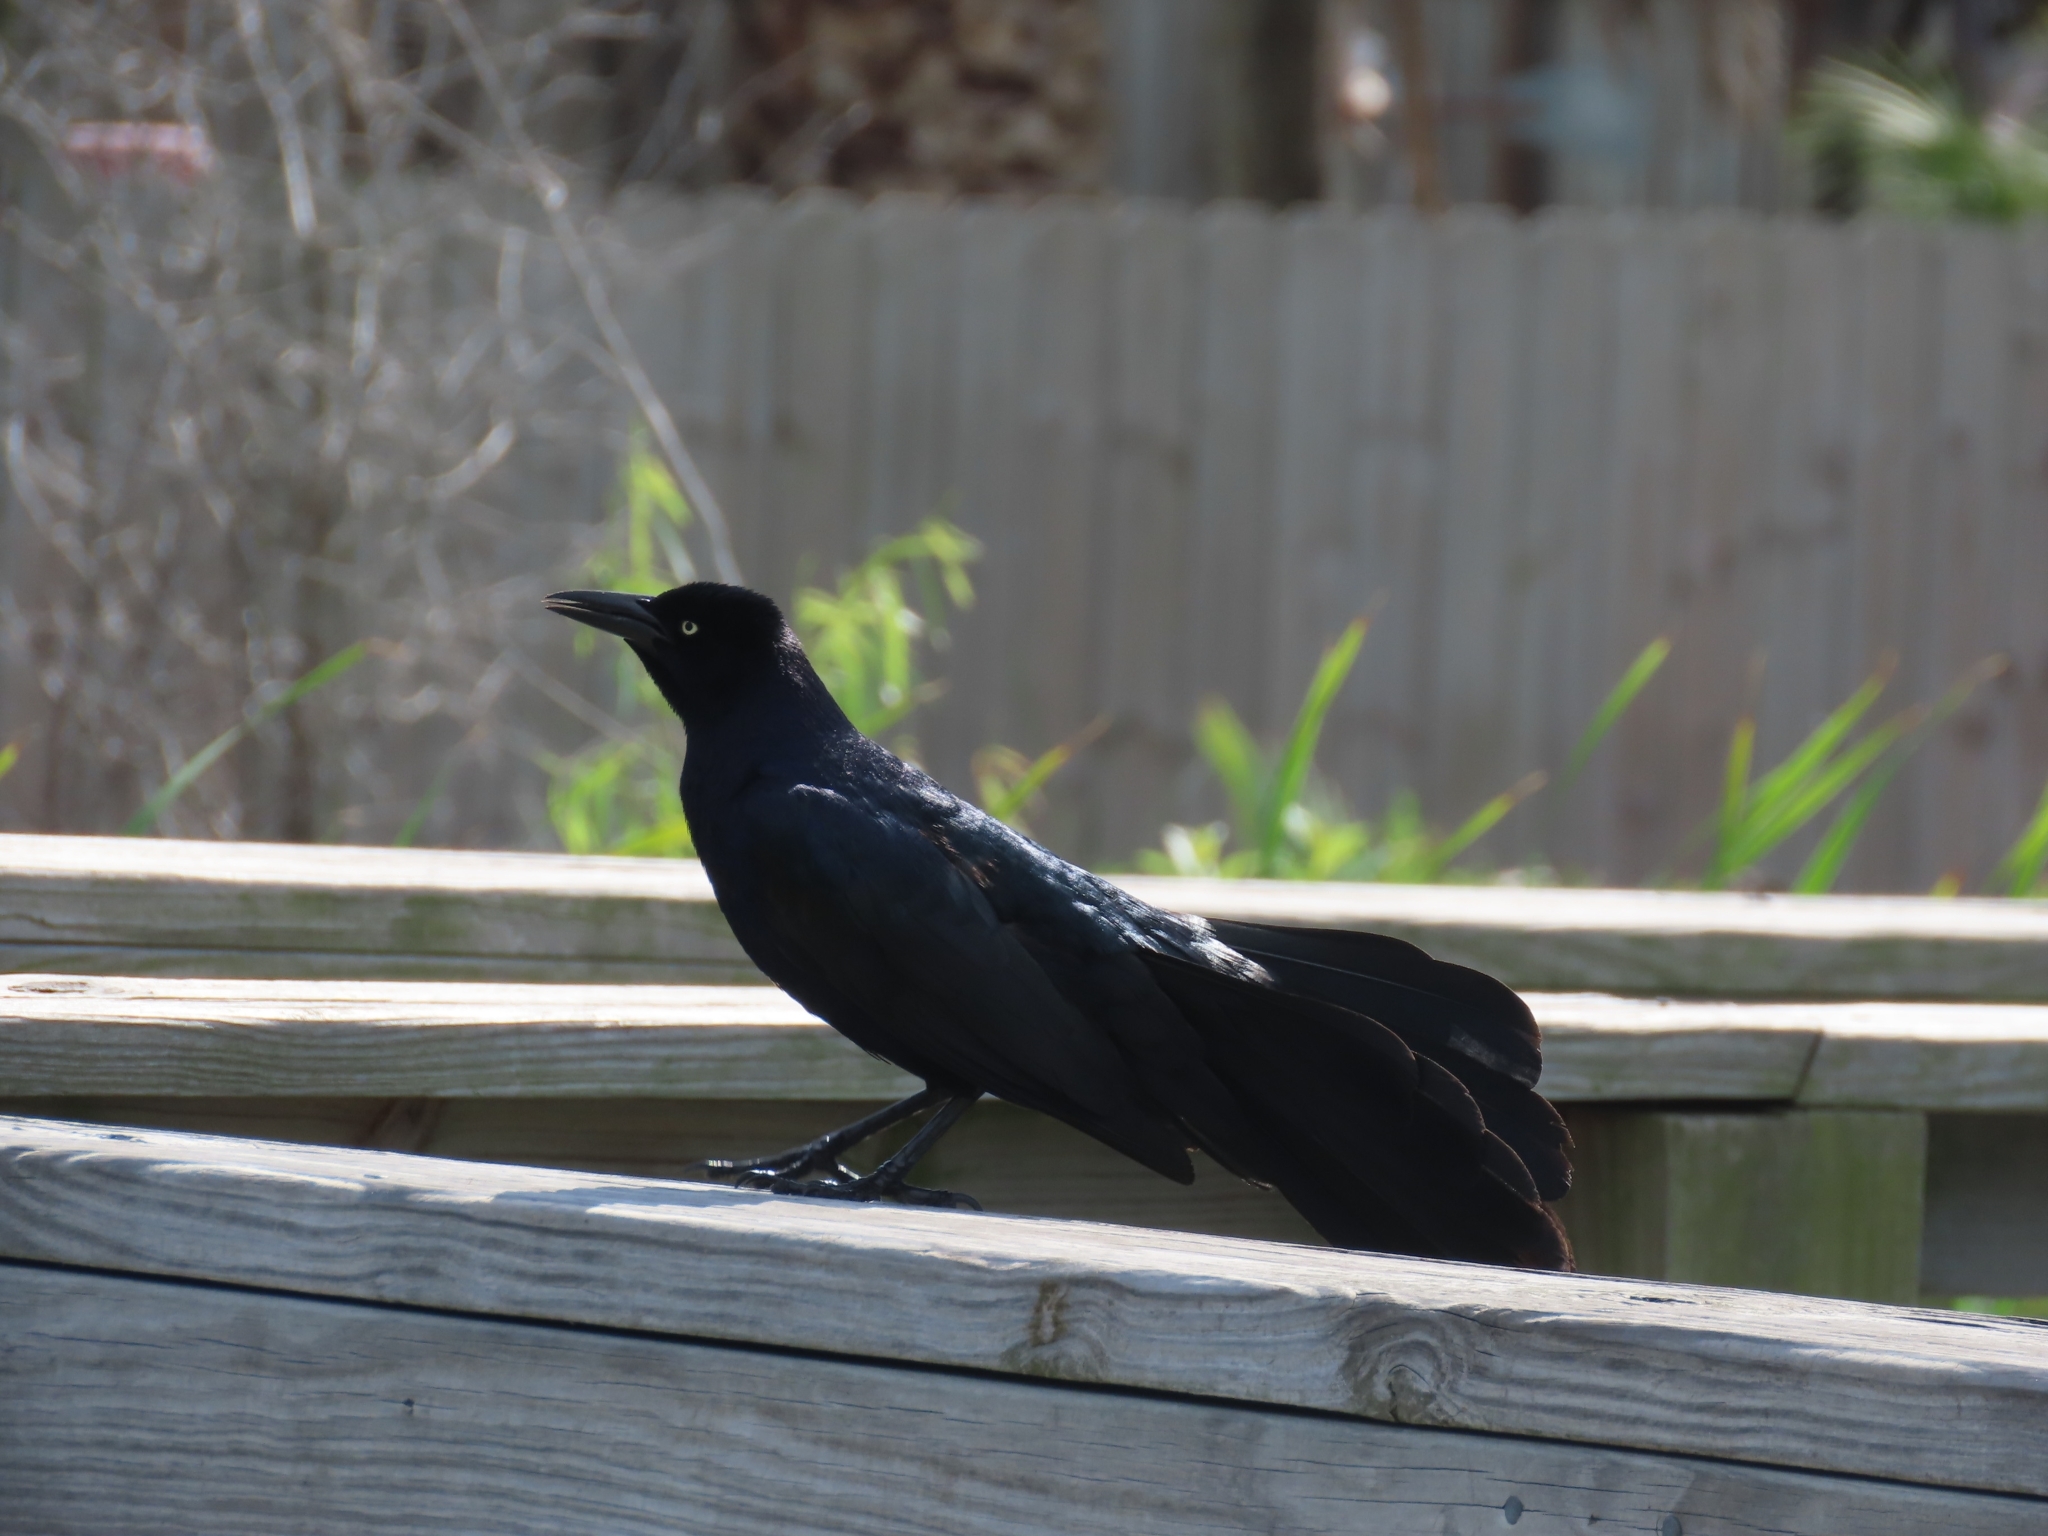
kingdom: Animalia
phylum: Chordata
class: Aves
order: Passeriformes
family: Icteridae
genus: Quiscalus
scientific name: Quiscalus mexicanus
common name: Great-tailed grackle
